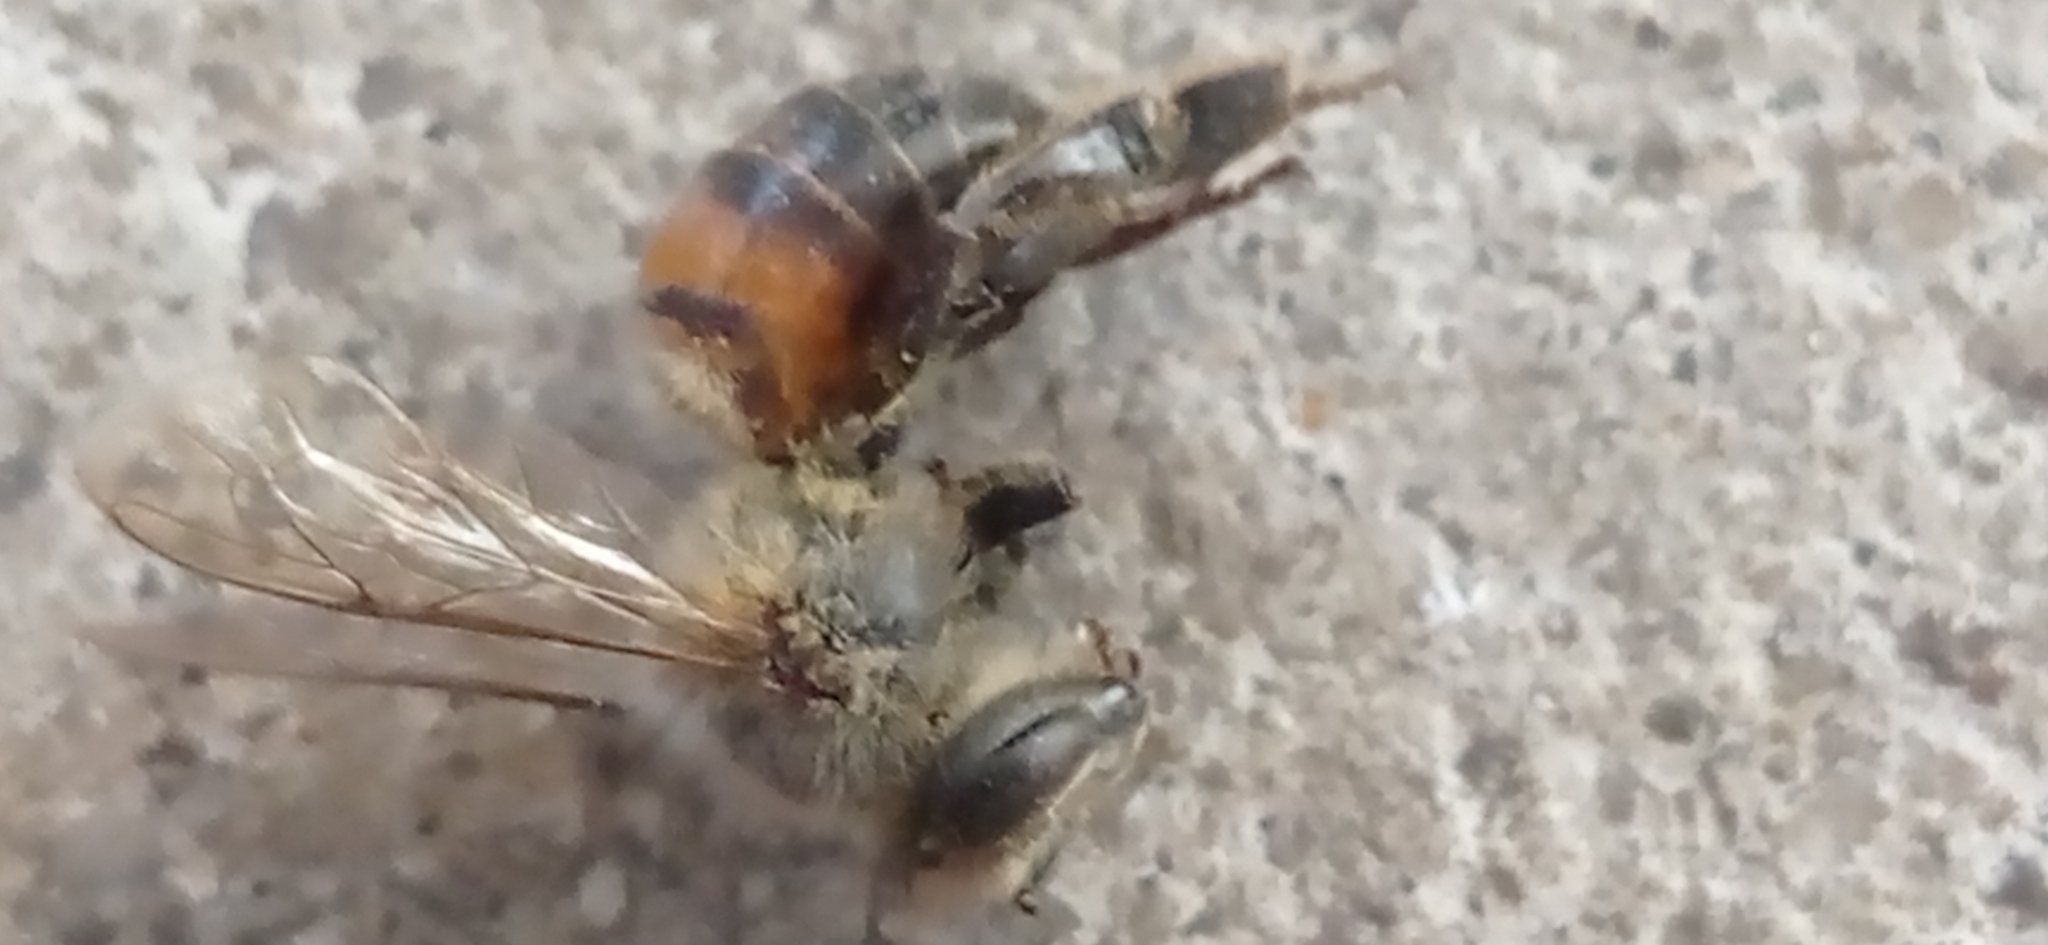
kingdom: Animalia
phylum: Arthropoda
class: Insecta
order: Hymenoptera
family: Apidae
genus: Apis
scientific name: Apis mellifera
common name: Honey bee
